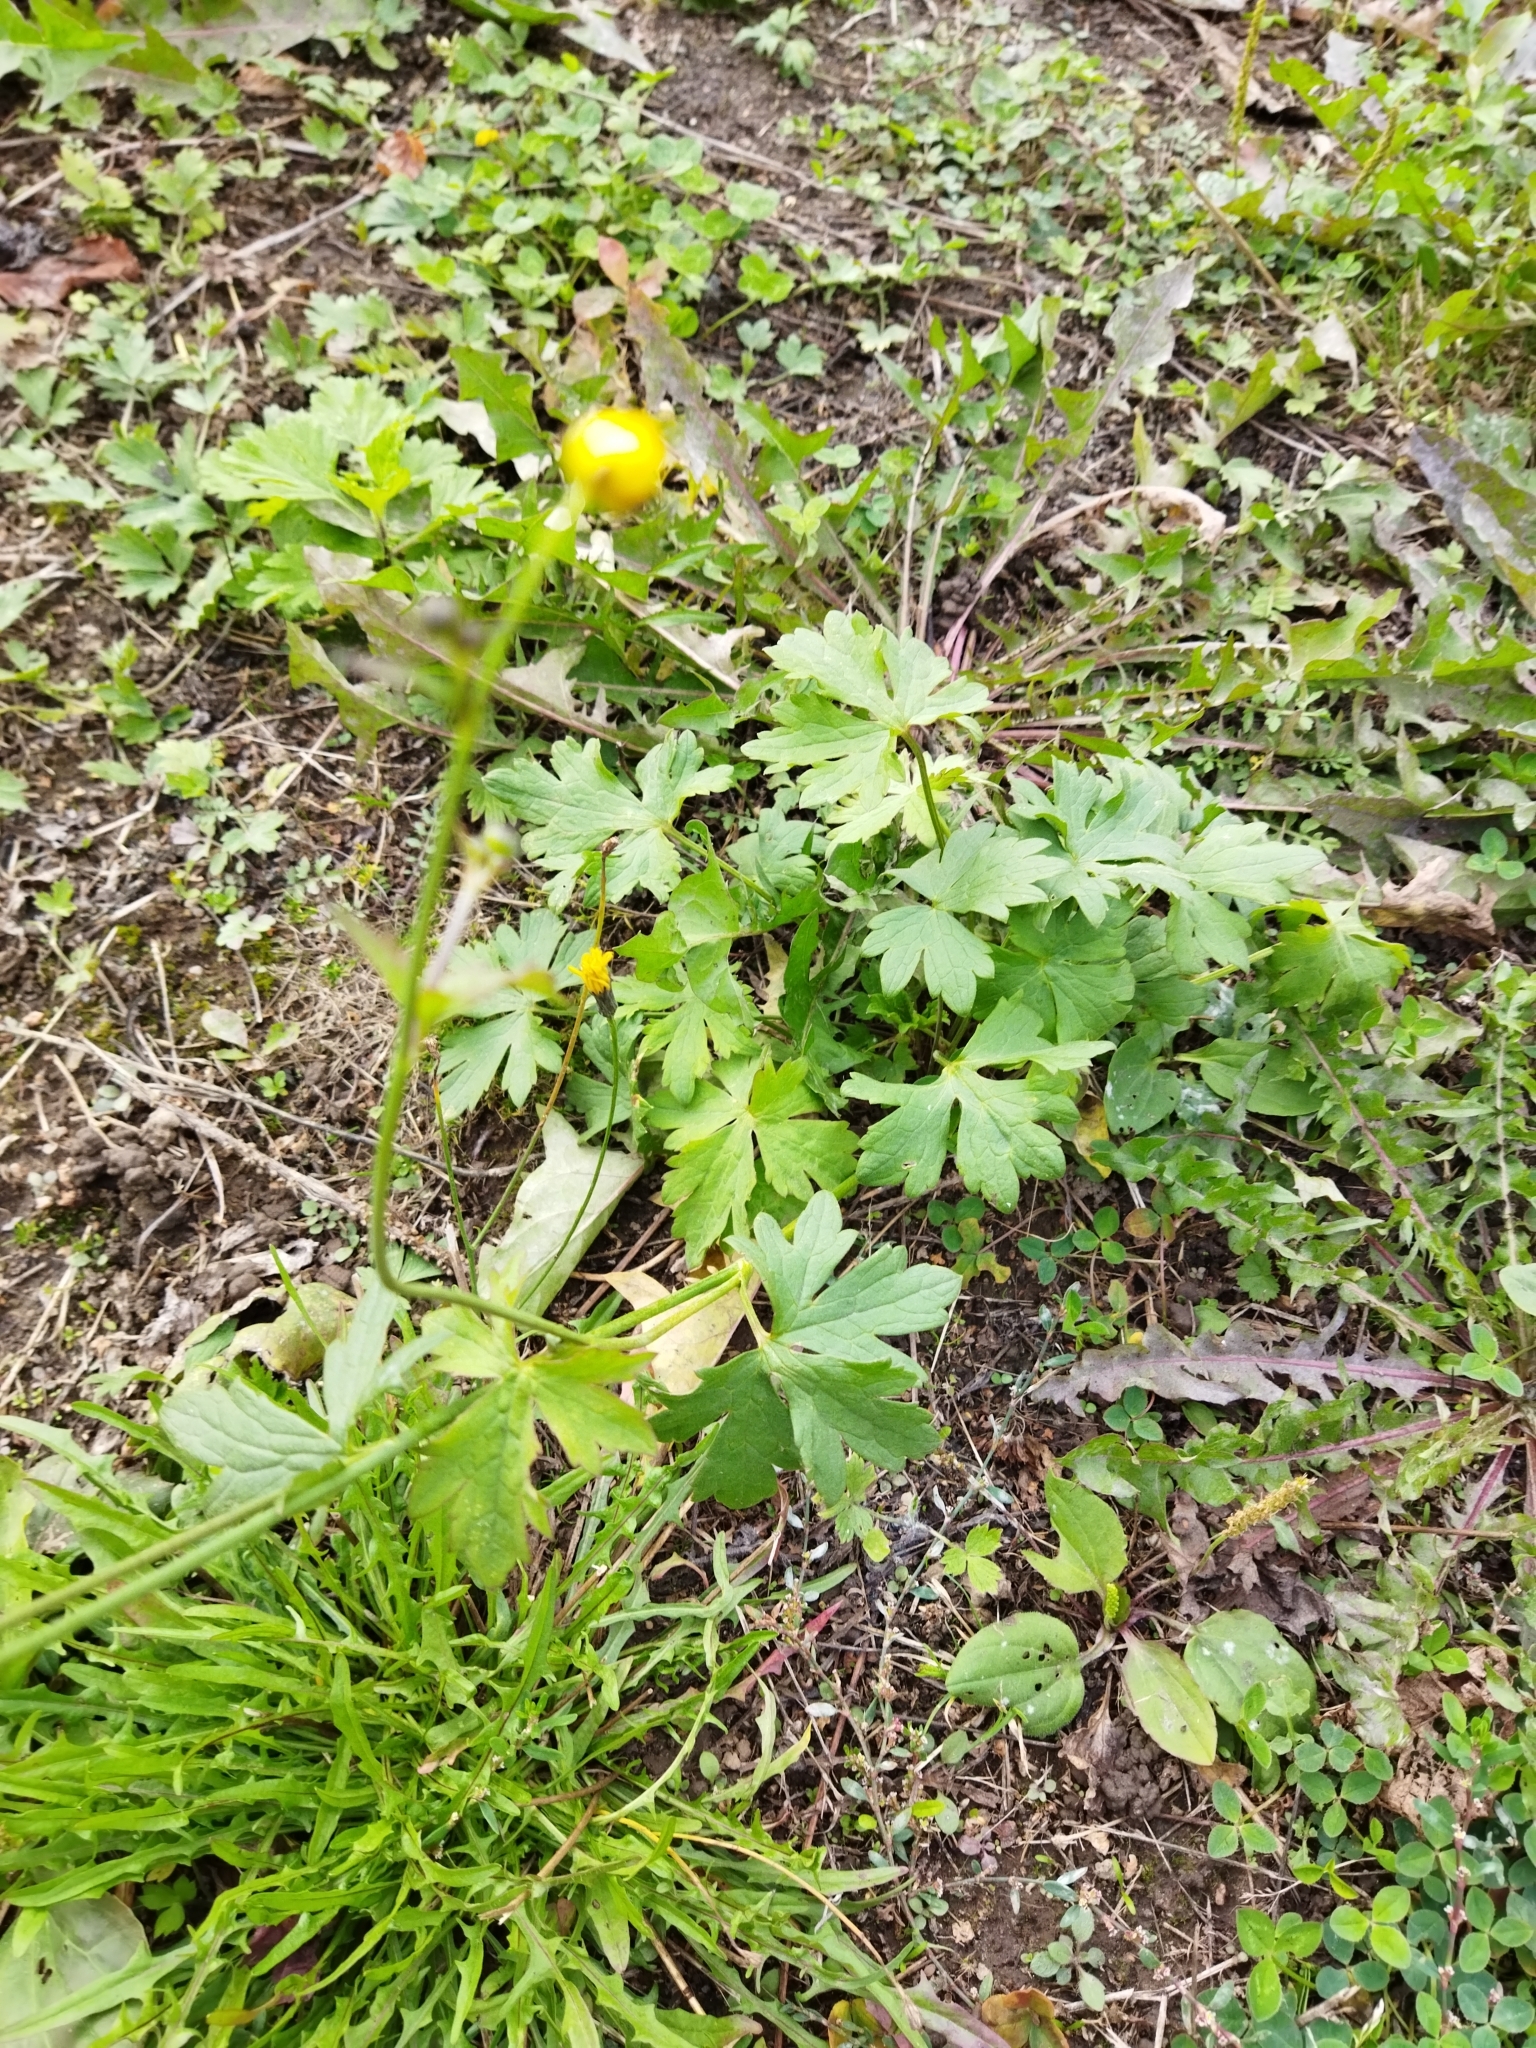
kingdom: Plantae
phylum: Tracheophyta
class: Magnoliopsida
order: Ranunculales
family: Ranunculaceae
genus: Ranunculus
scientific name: Ranunculus acris
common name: Meadow buttercup
